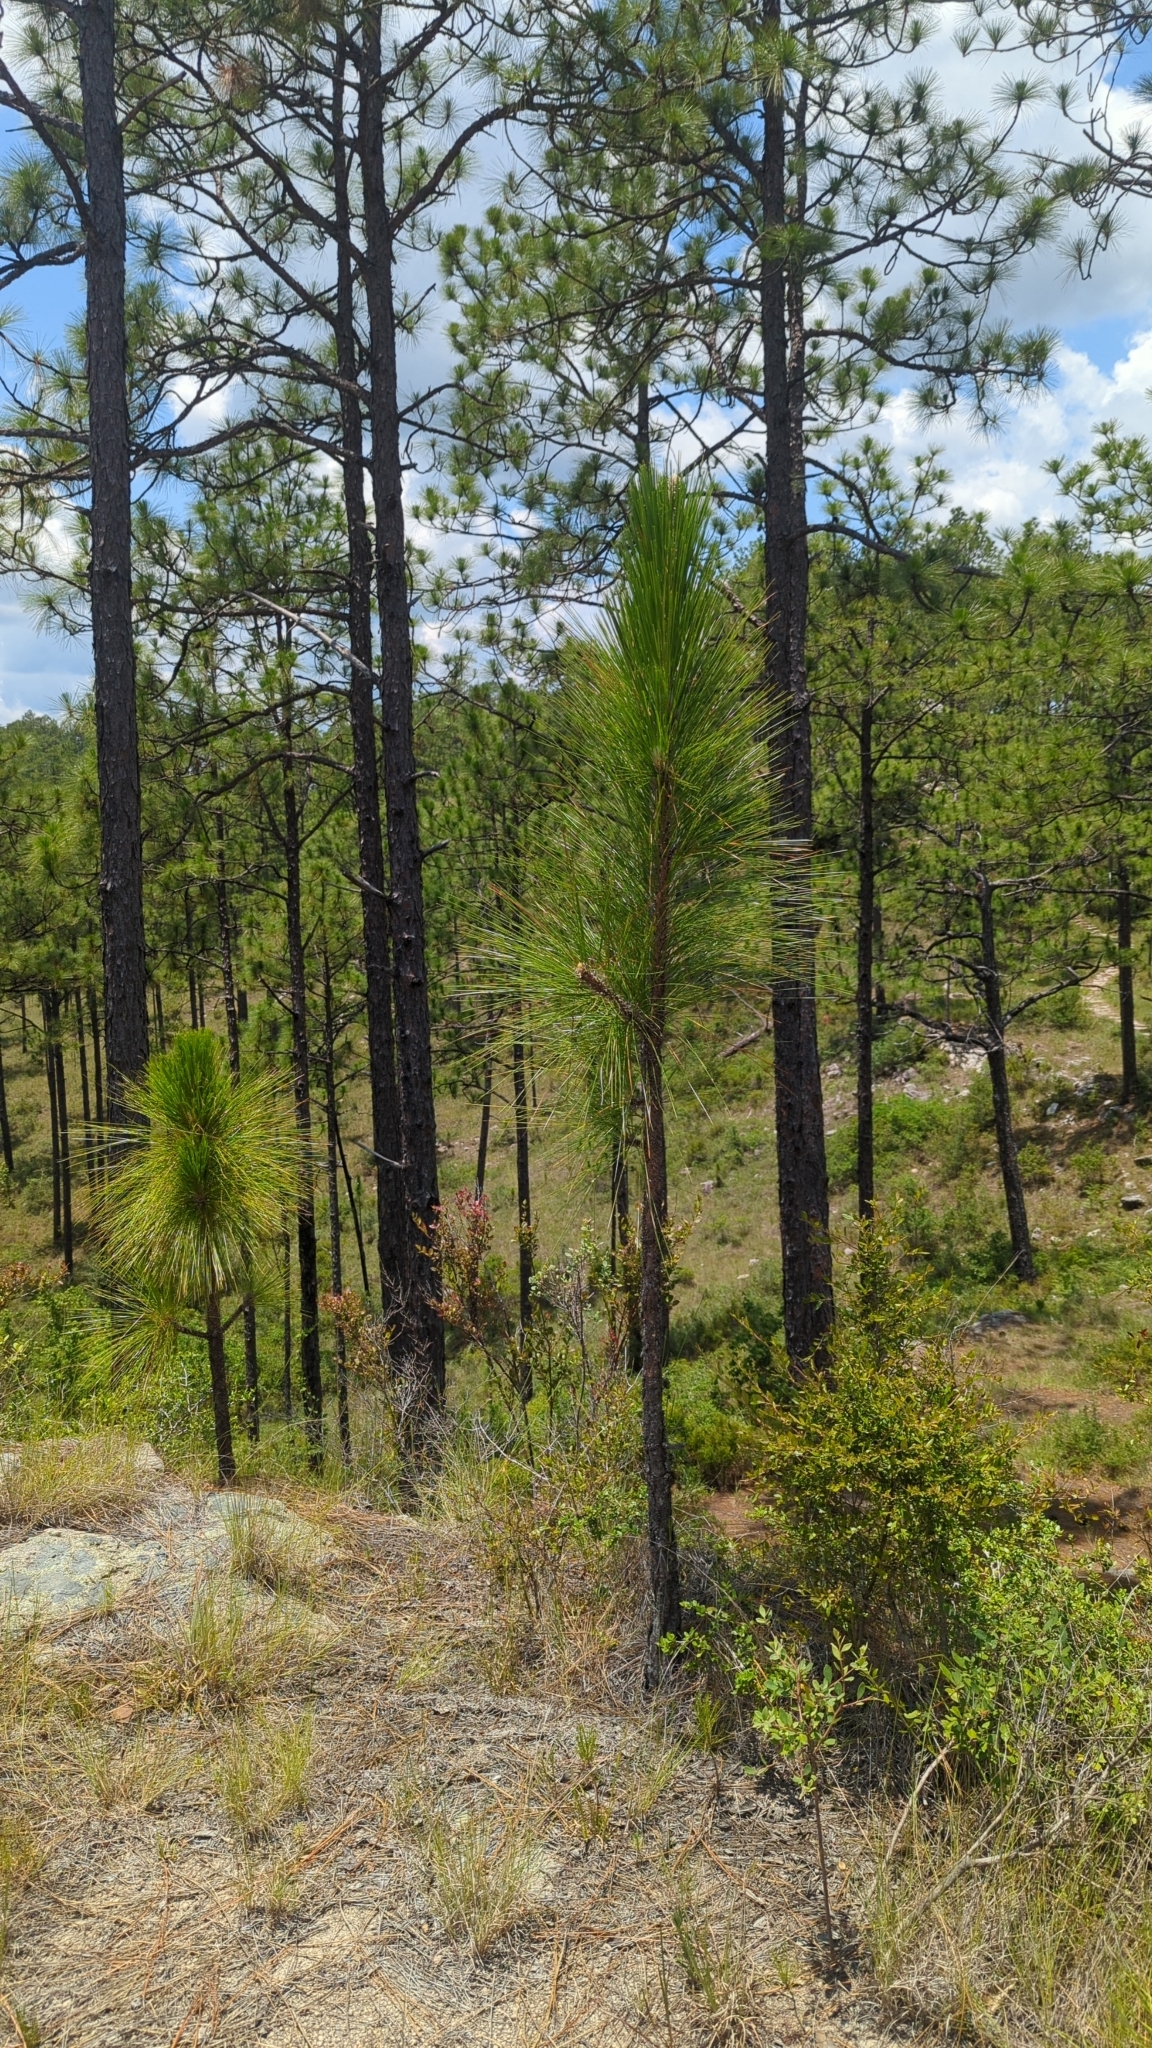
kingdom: Plantae
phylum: Tracheophyta
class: Pinopsida
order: Pinales
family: Pinaceae
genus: Pinus
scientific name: Pinus palustris
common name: Longleaf pine
